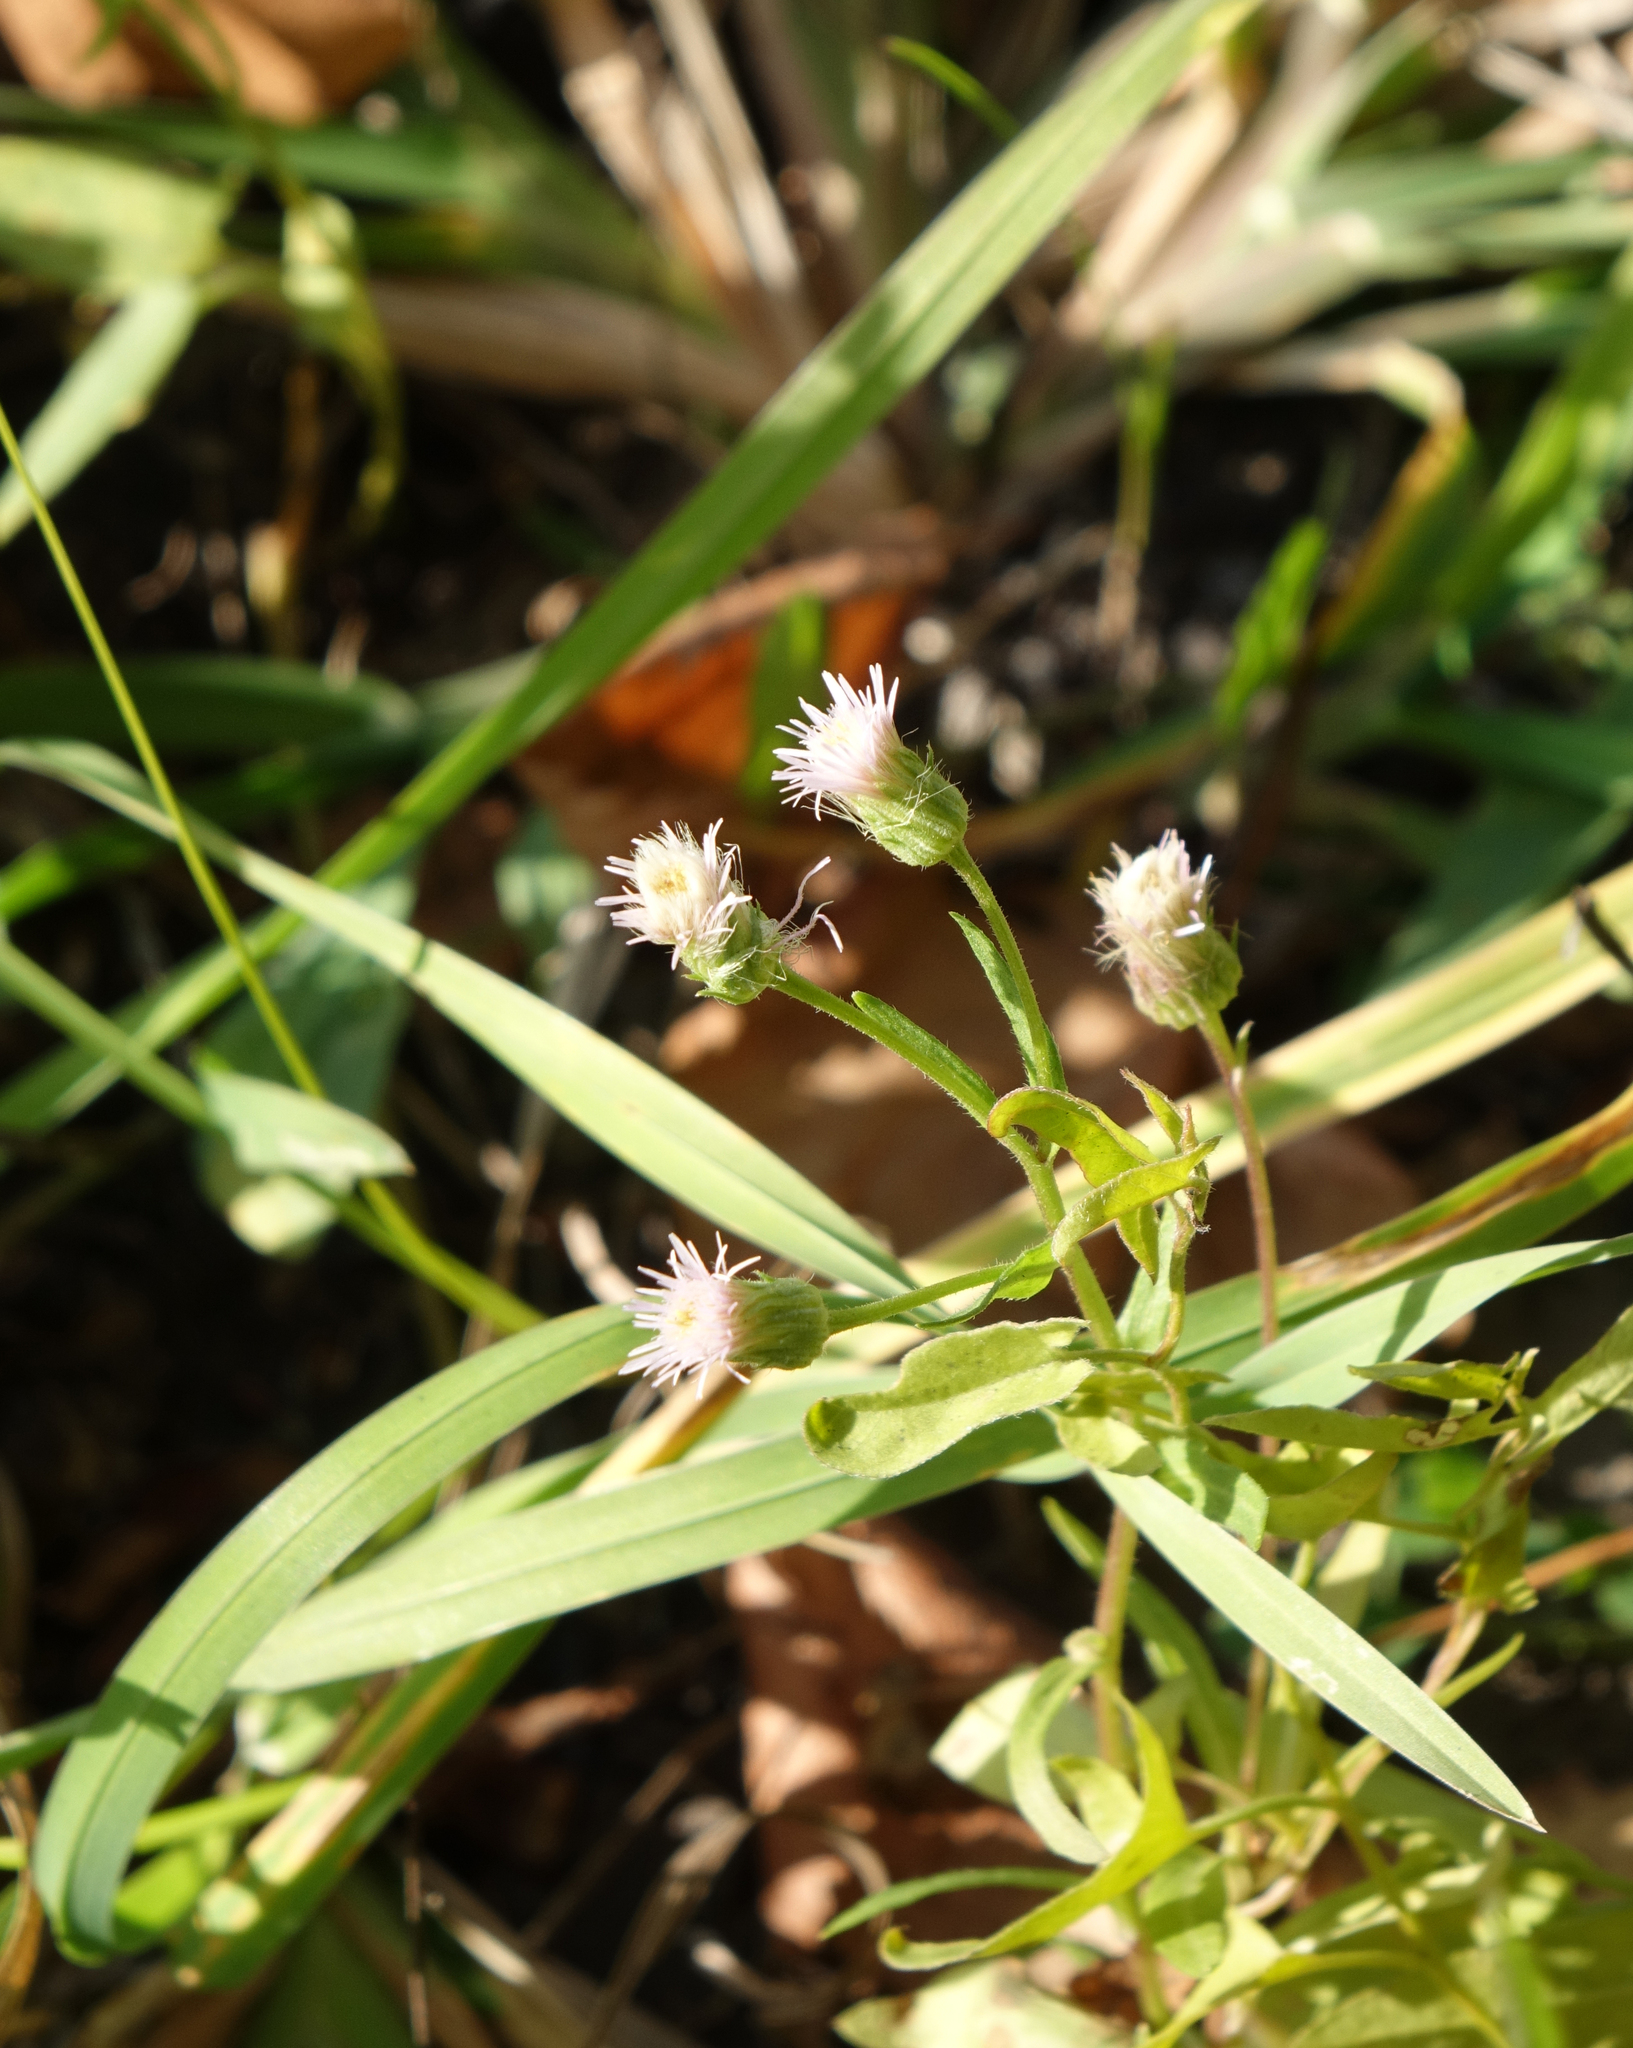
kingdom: Plantae
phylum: Tracheophyta
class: Magnoliopsida
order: Asterales
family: Asteraceae
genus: Erigeron
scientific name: Erigeron acris
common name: Blue fleabane
